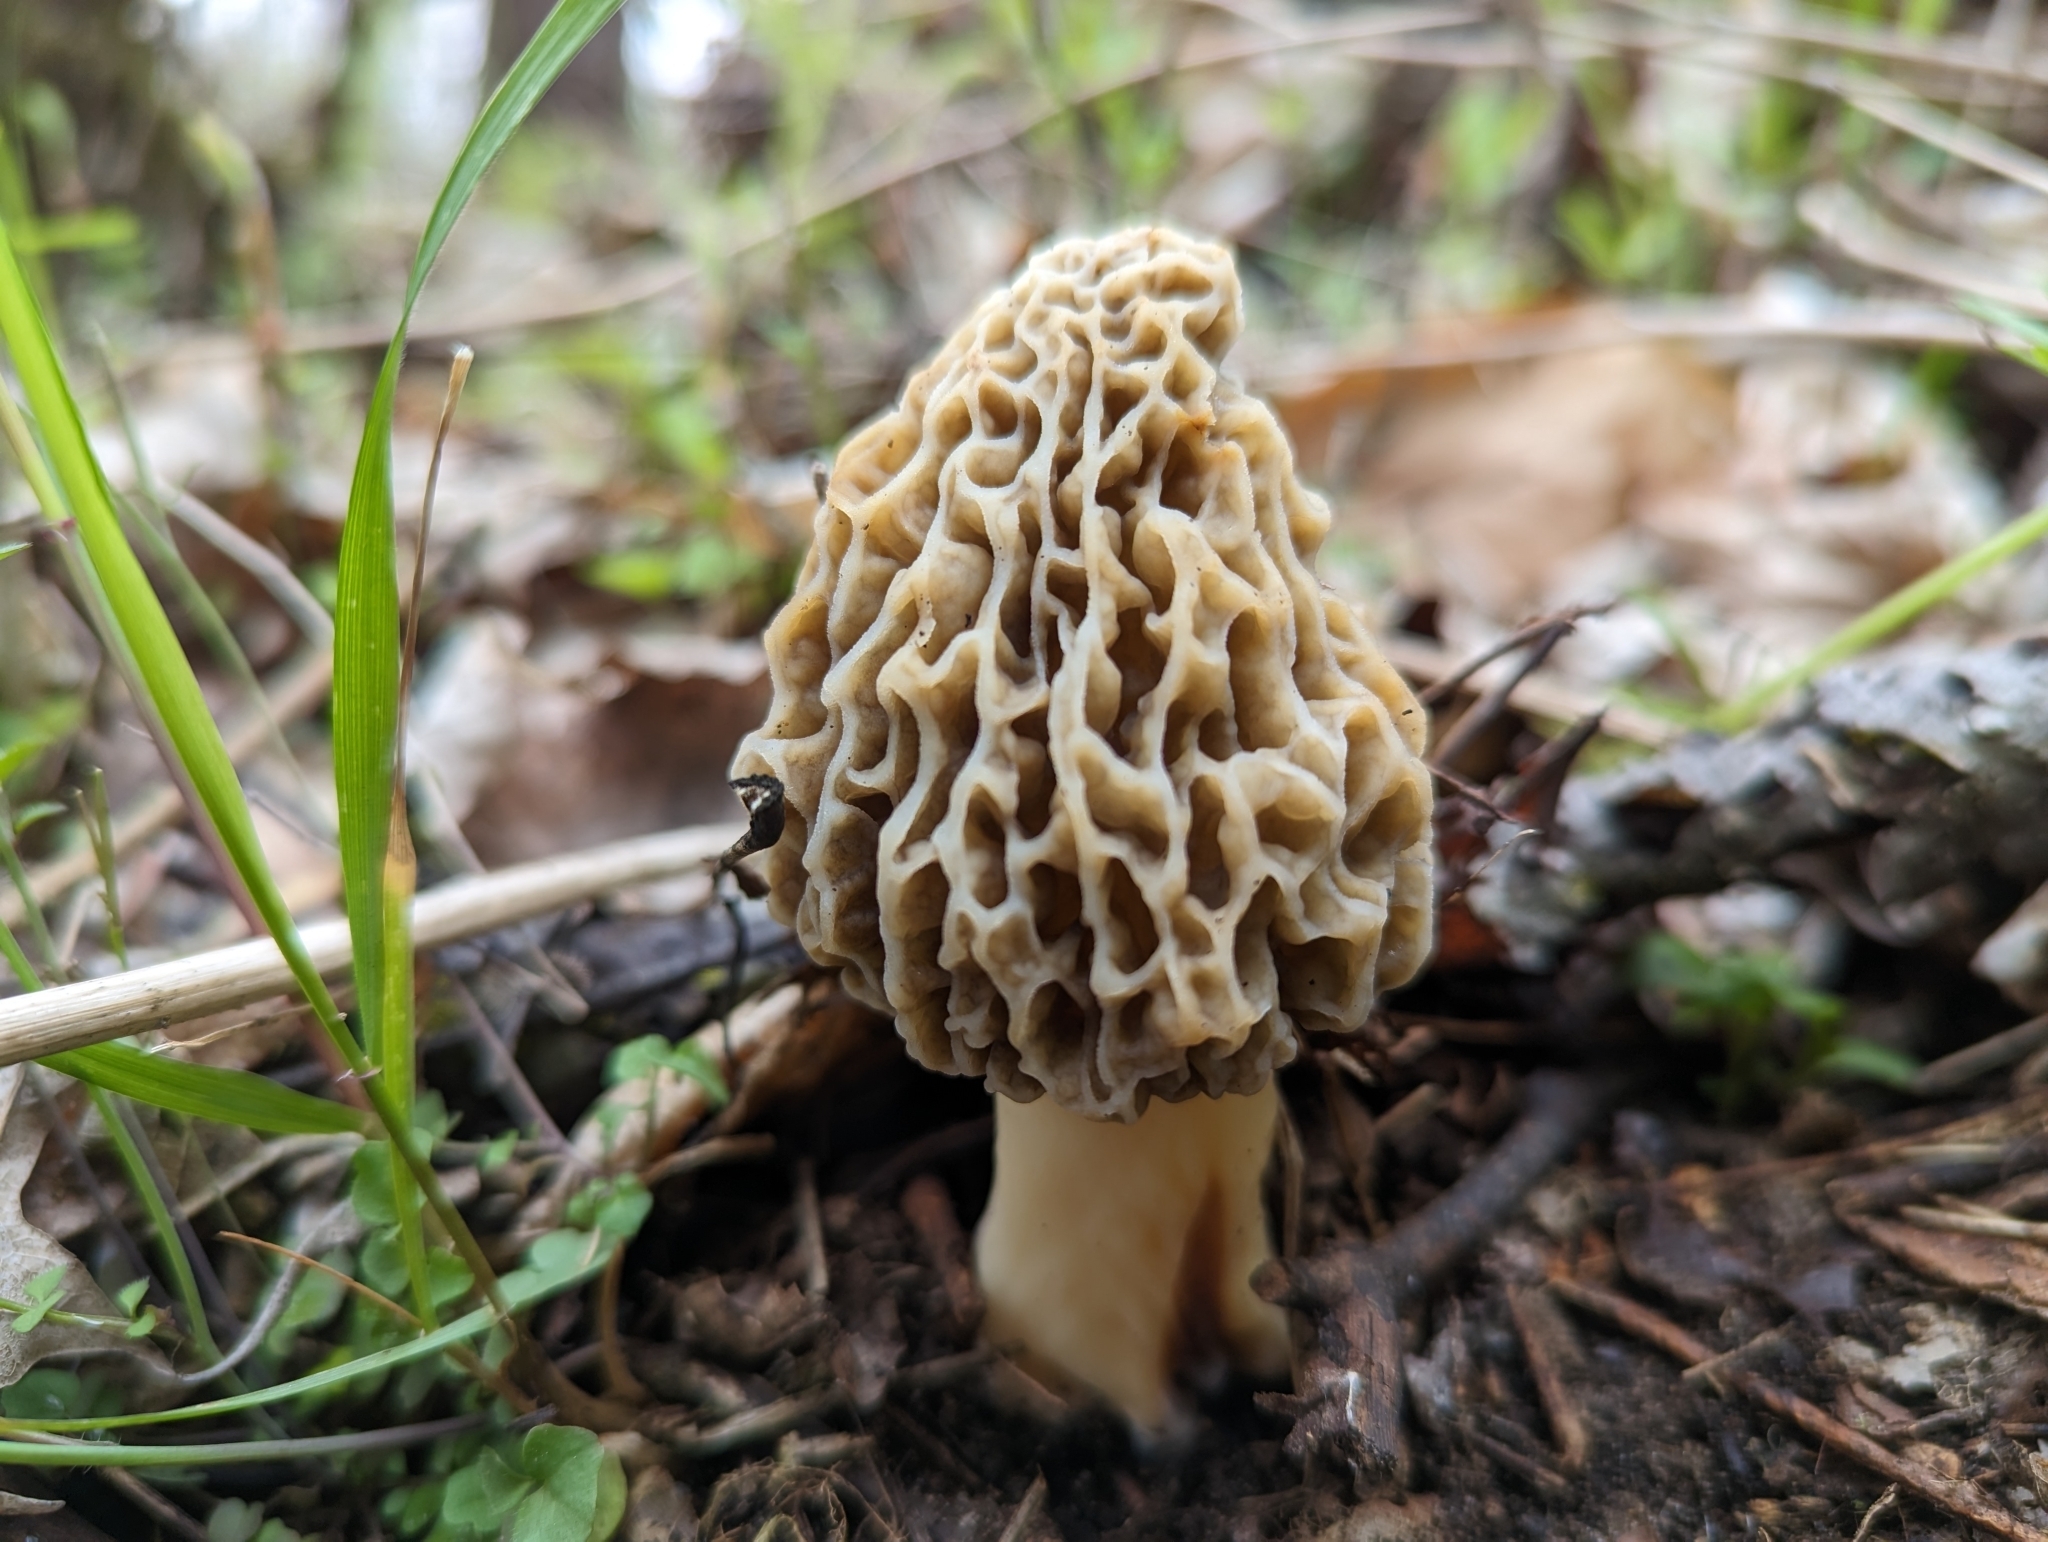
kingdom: Fungi
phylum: Ascomycota
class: Pezizomycetes
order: Pezizales
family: Morchellaceae
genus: Morchella
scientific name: Morchella americana
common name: White morel
